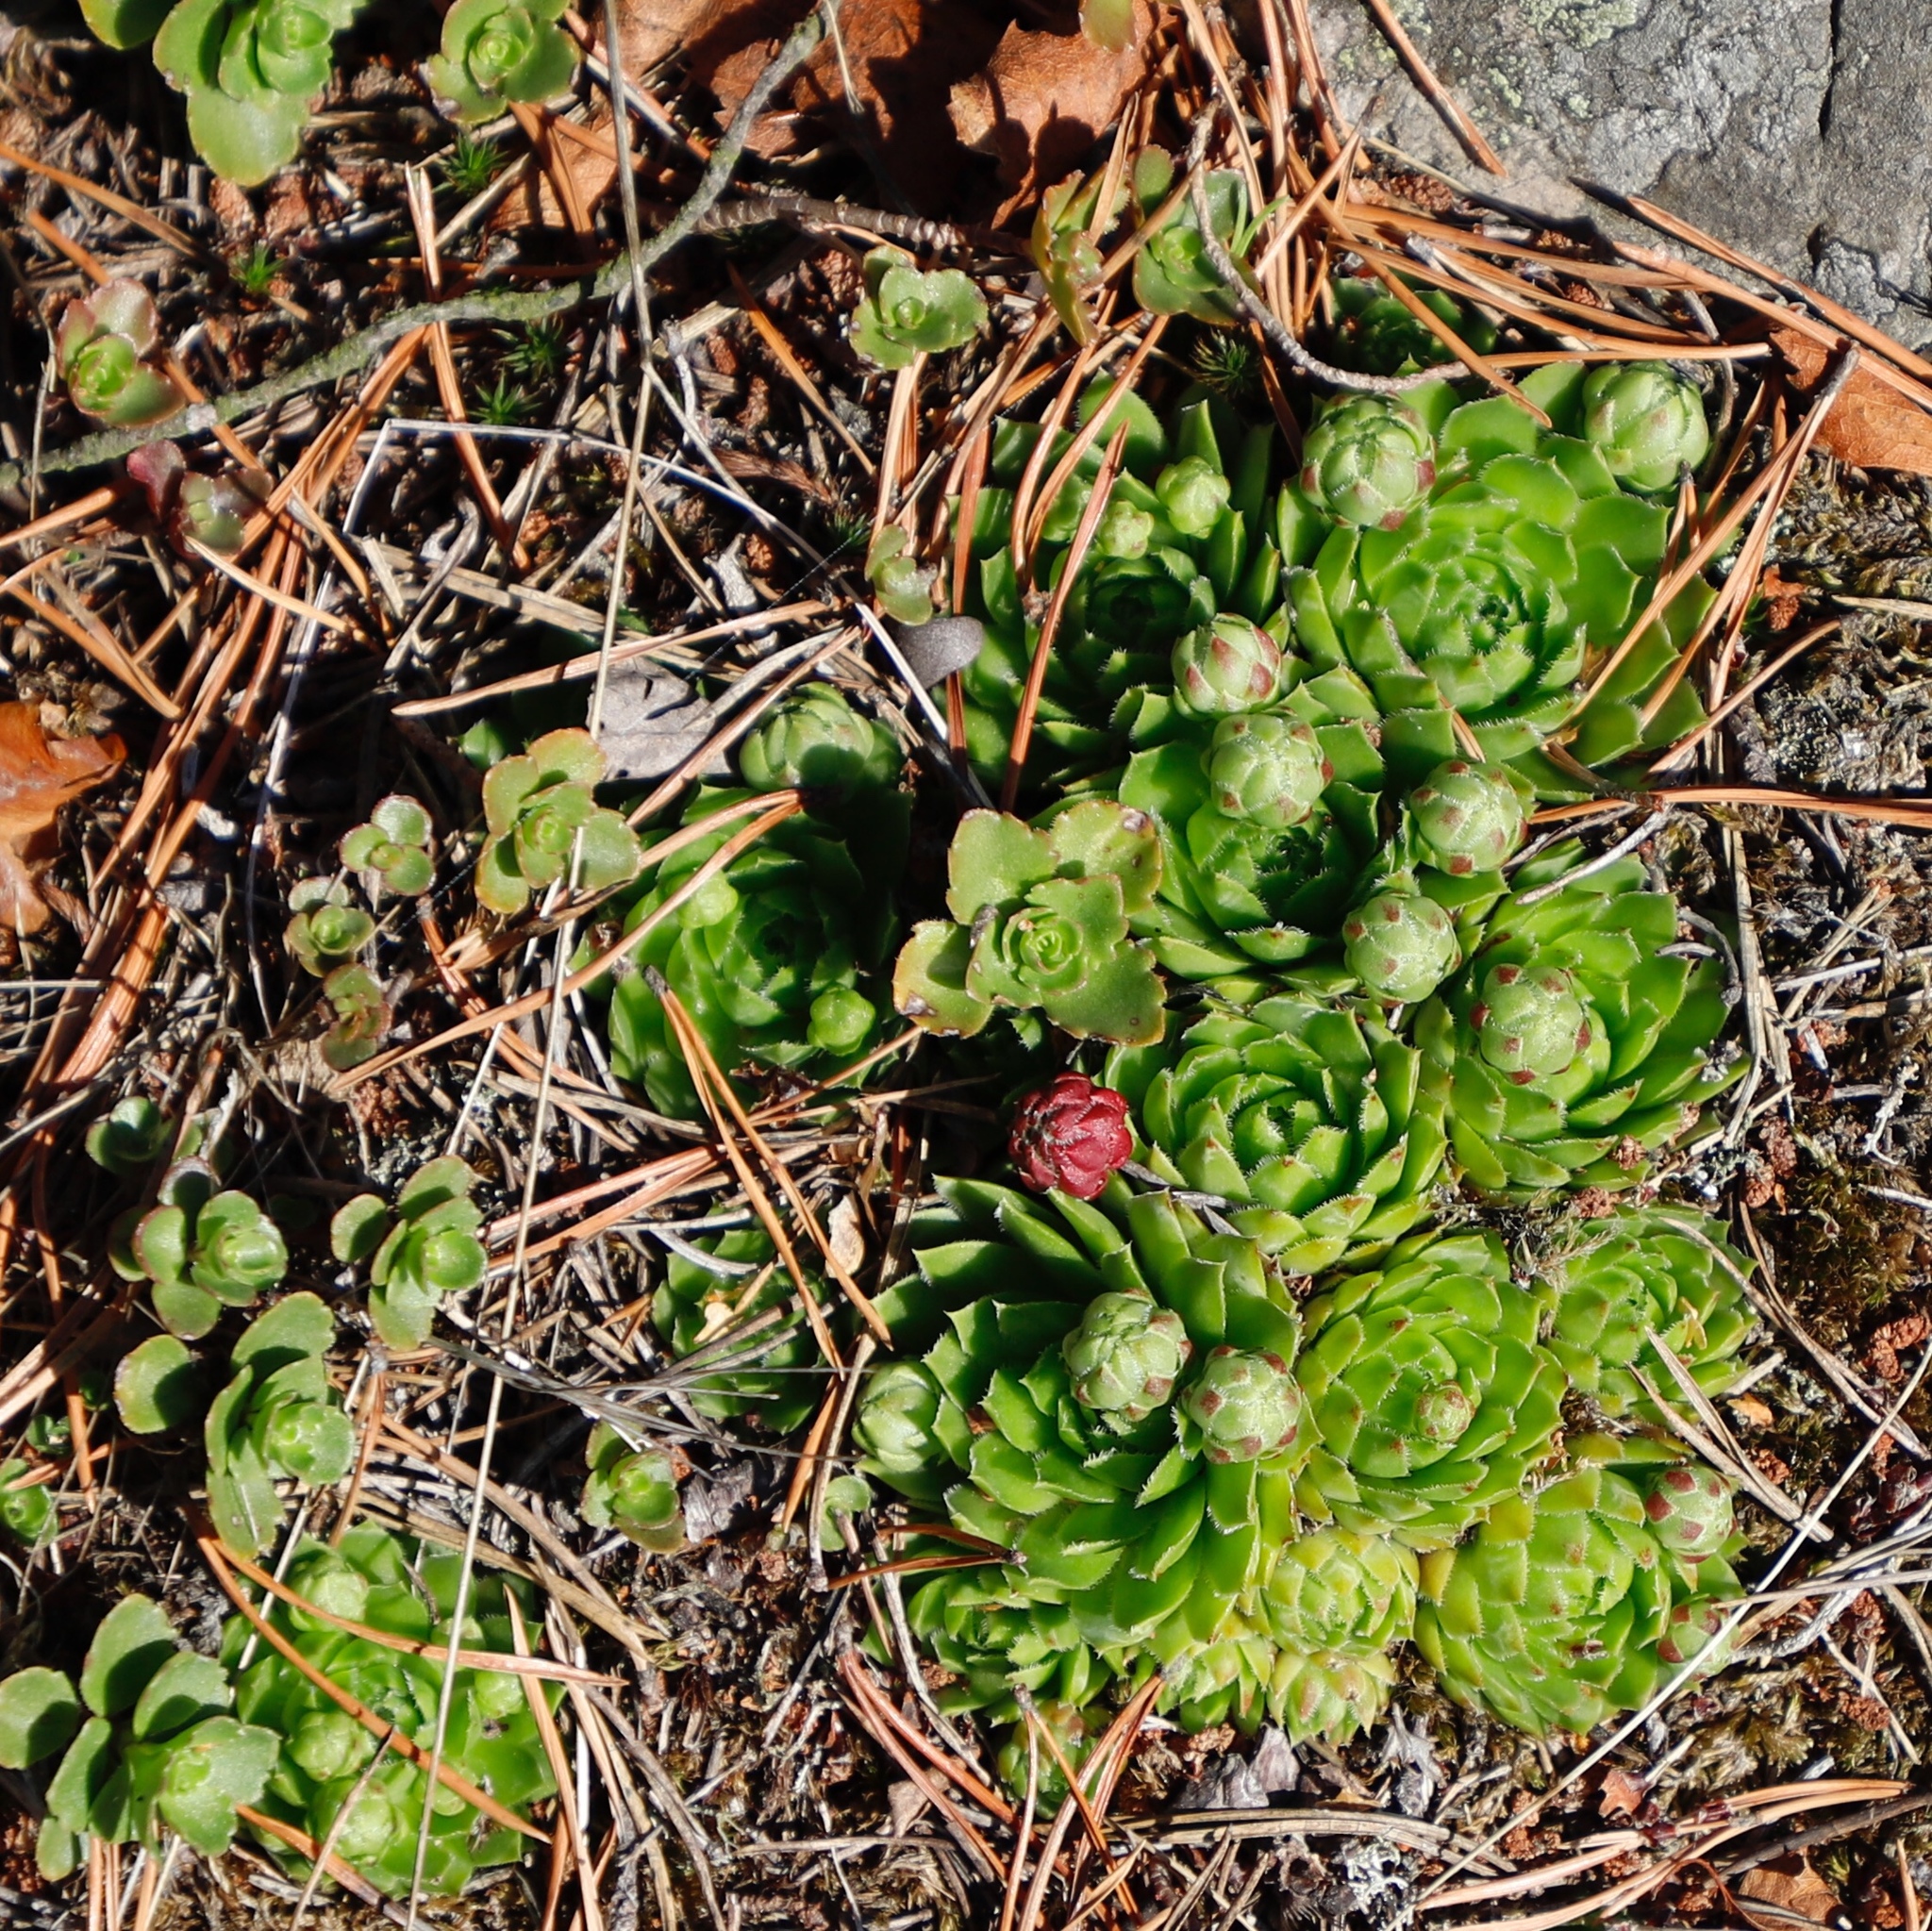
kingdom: Plantae
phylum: Tracheophyta
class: Magnoliopsida
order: Saxifragales
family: Crassulaceae
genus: Sempervivum
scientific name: Sempervivum globiferum
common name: Rolling hen-and-chicks
